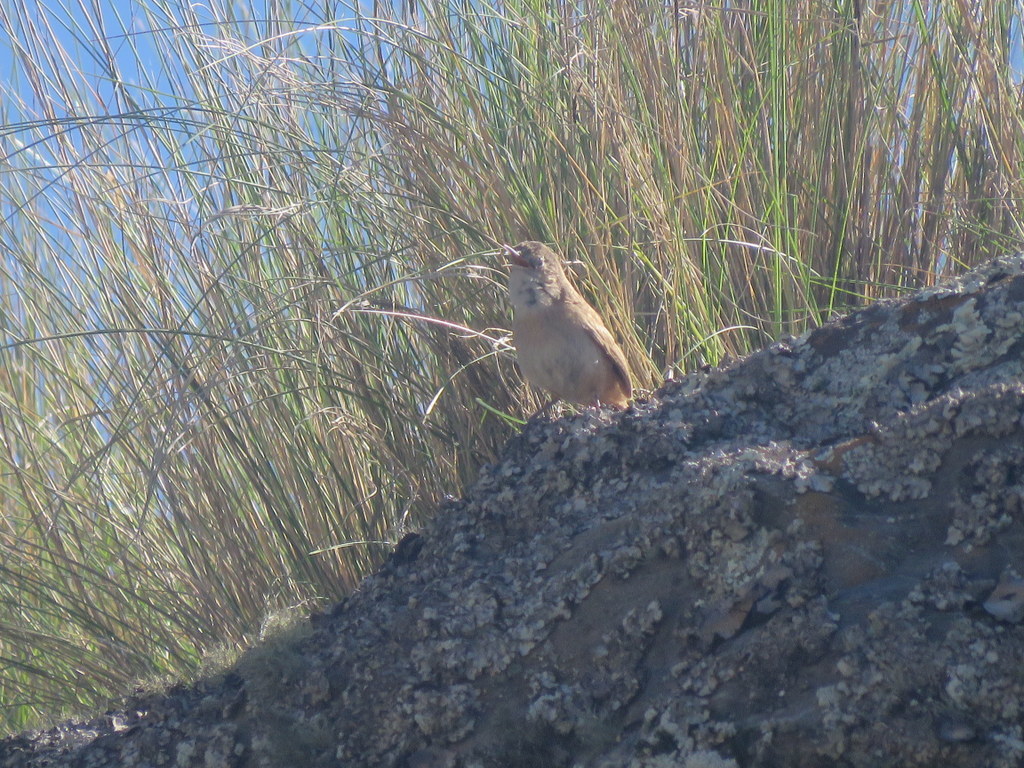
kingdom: Animalia
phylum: Chordata
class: Aves
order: Passeriformes
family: Troglodytidae
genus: Troglodytes
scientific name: Troglodytes aedon
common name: House wren
